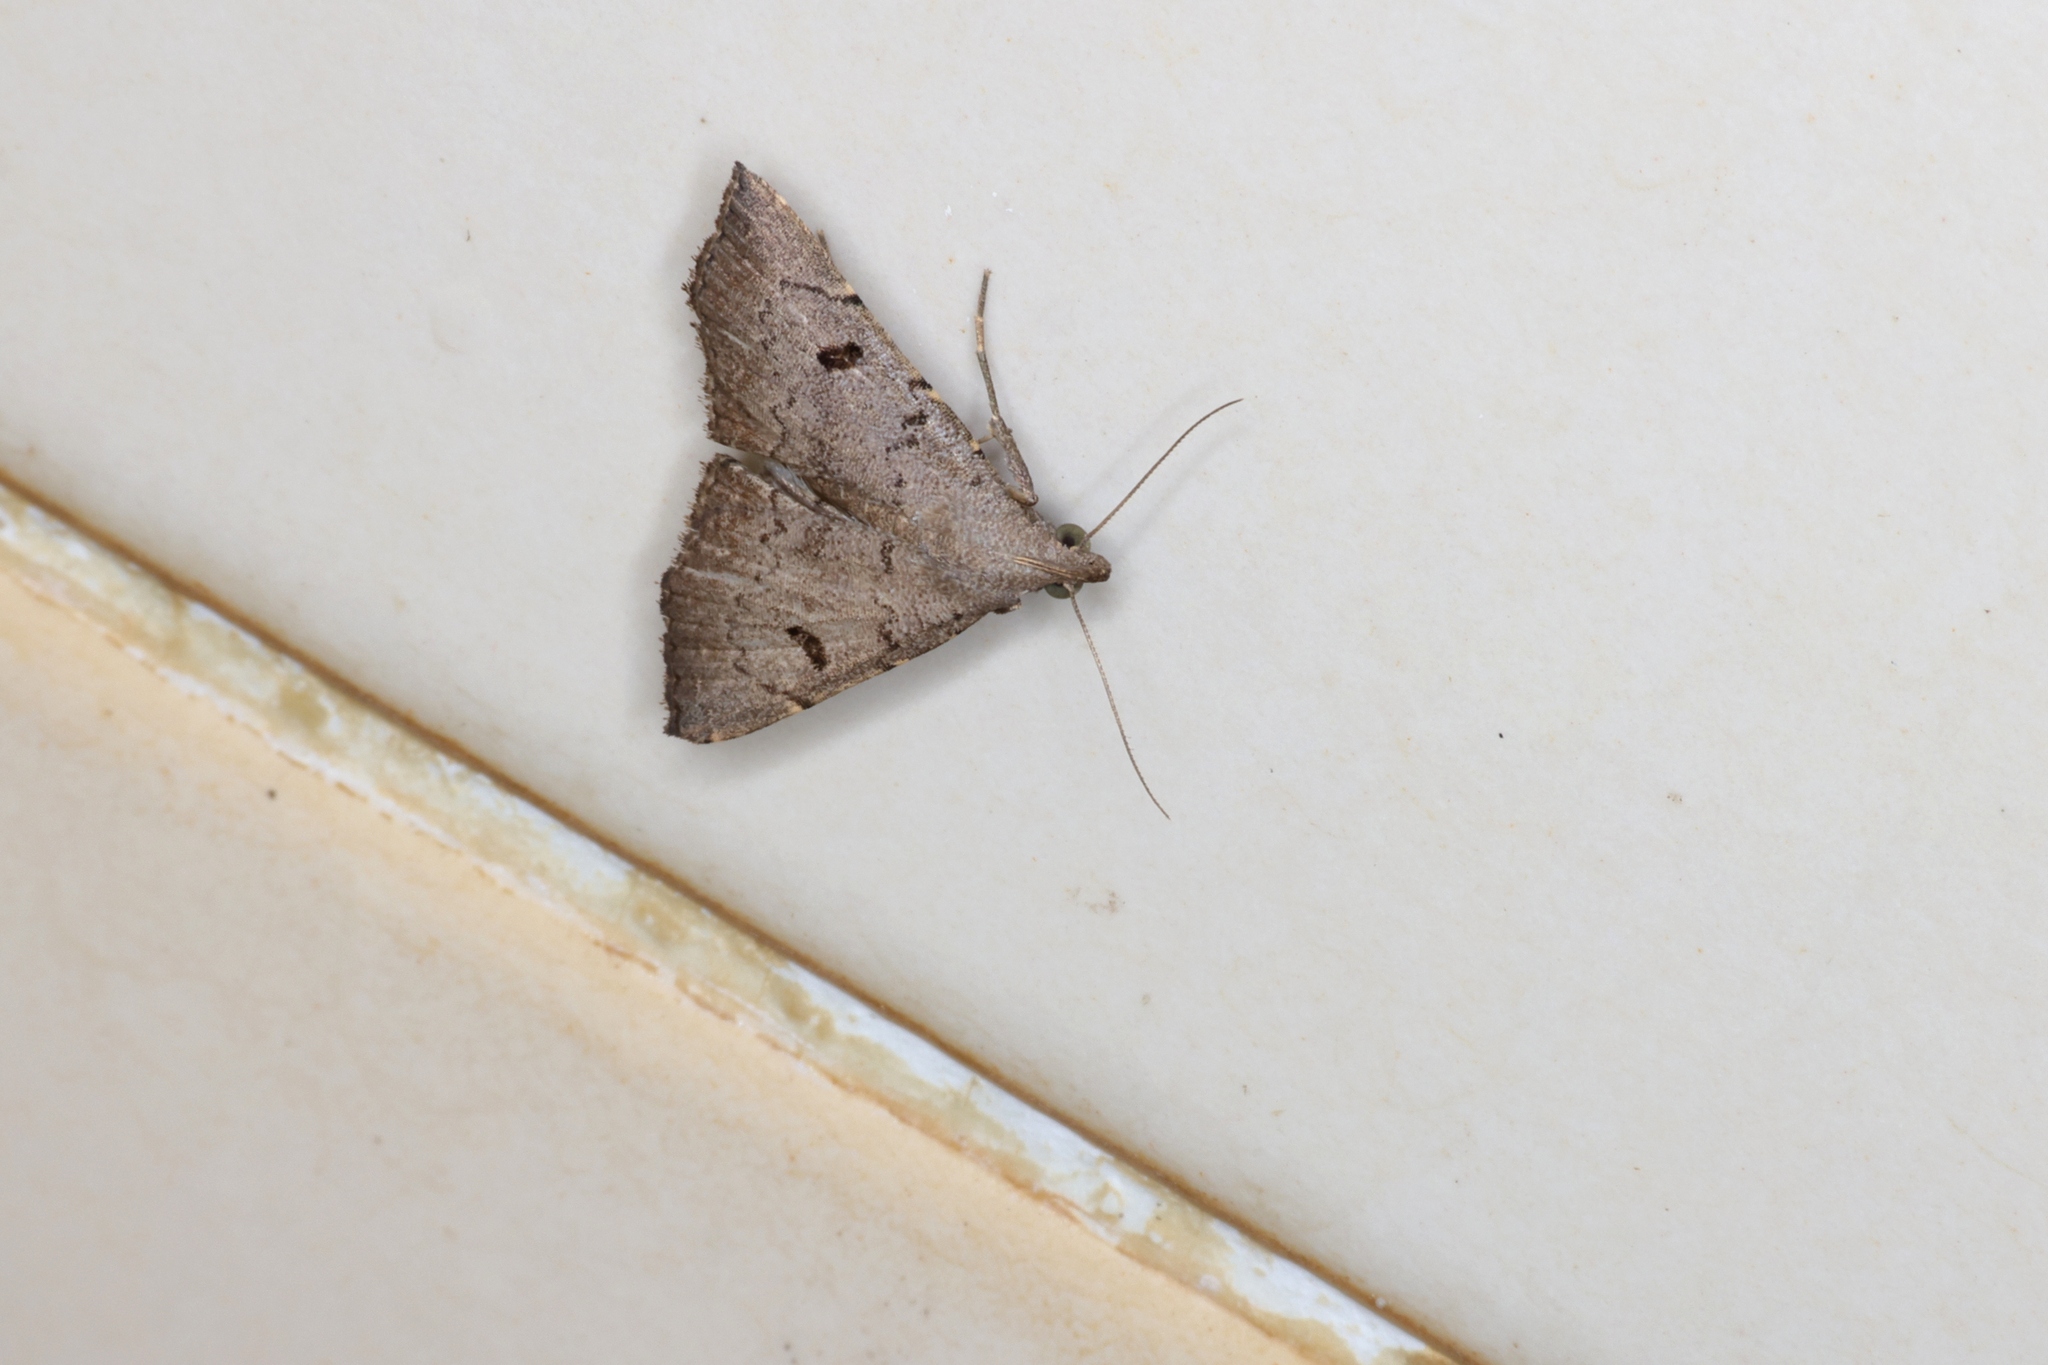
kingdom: Animalia
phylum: Arthropoda
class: Insecta
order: Lepidoptera
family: Erebidae
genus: Progonia
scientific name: Progonia oileusalis
